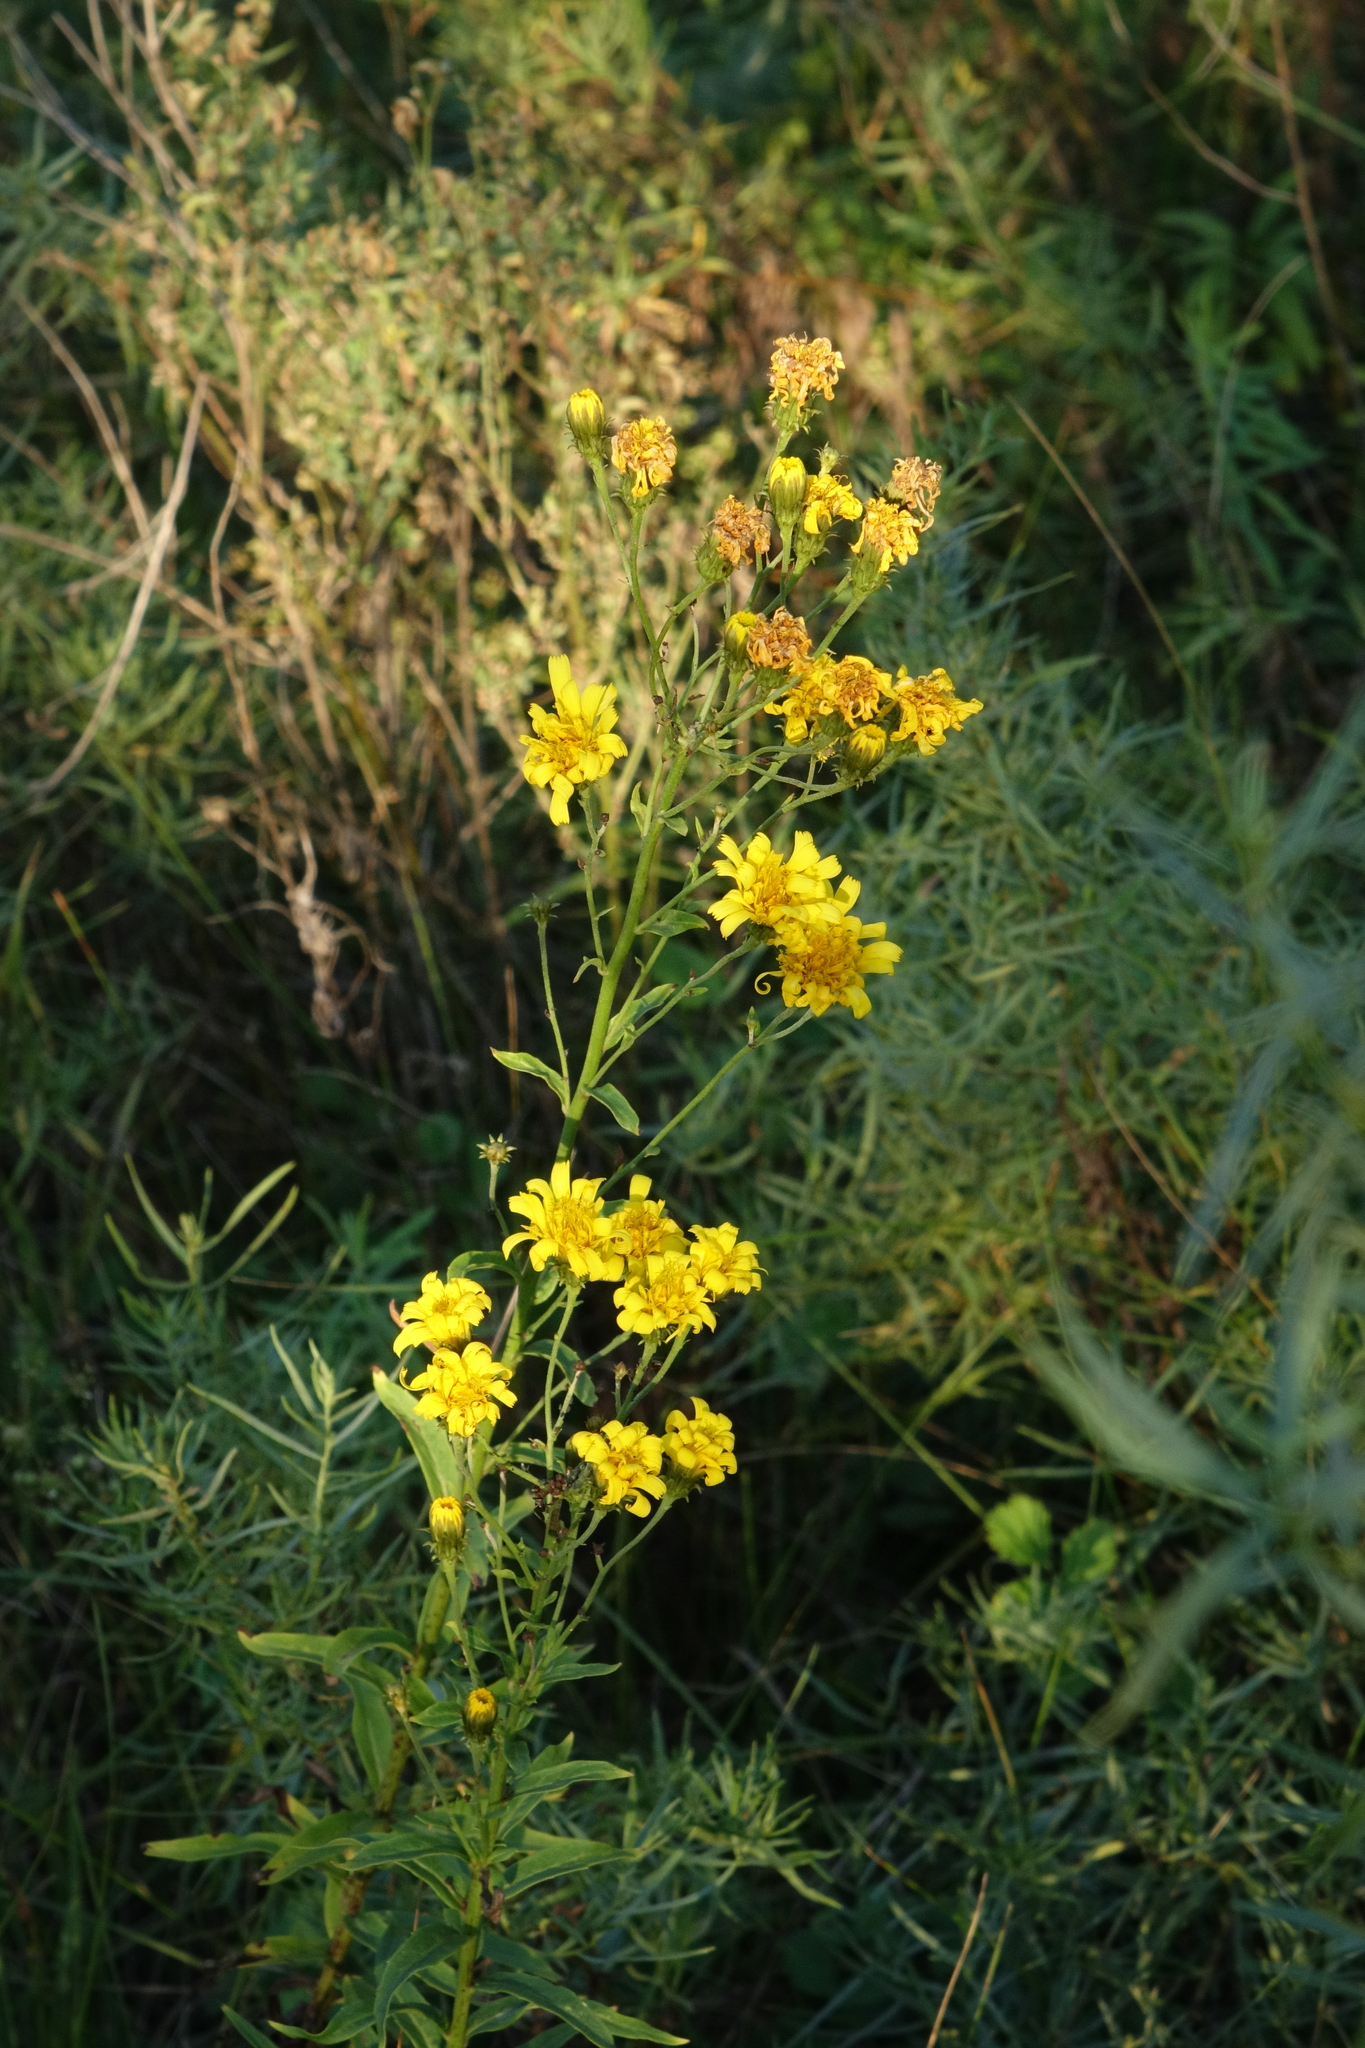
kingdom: Plantae
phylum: Tracheophyta
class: Magnoliopsida
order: Asterales
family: Asteraceae
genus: Hieracium
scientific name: Hieracium umbellatum
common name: Northern hawkweed
